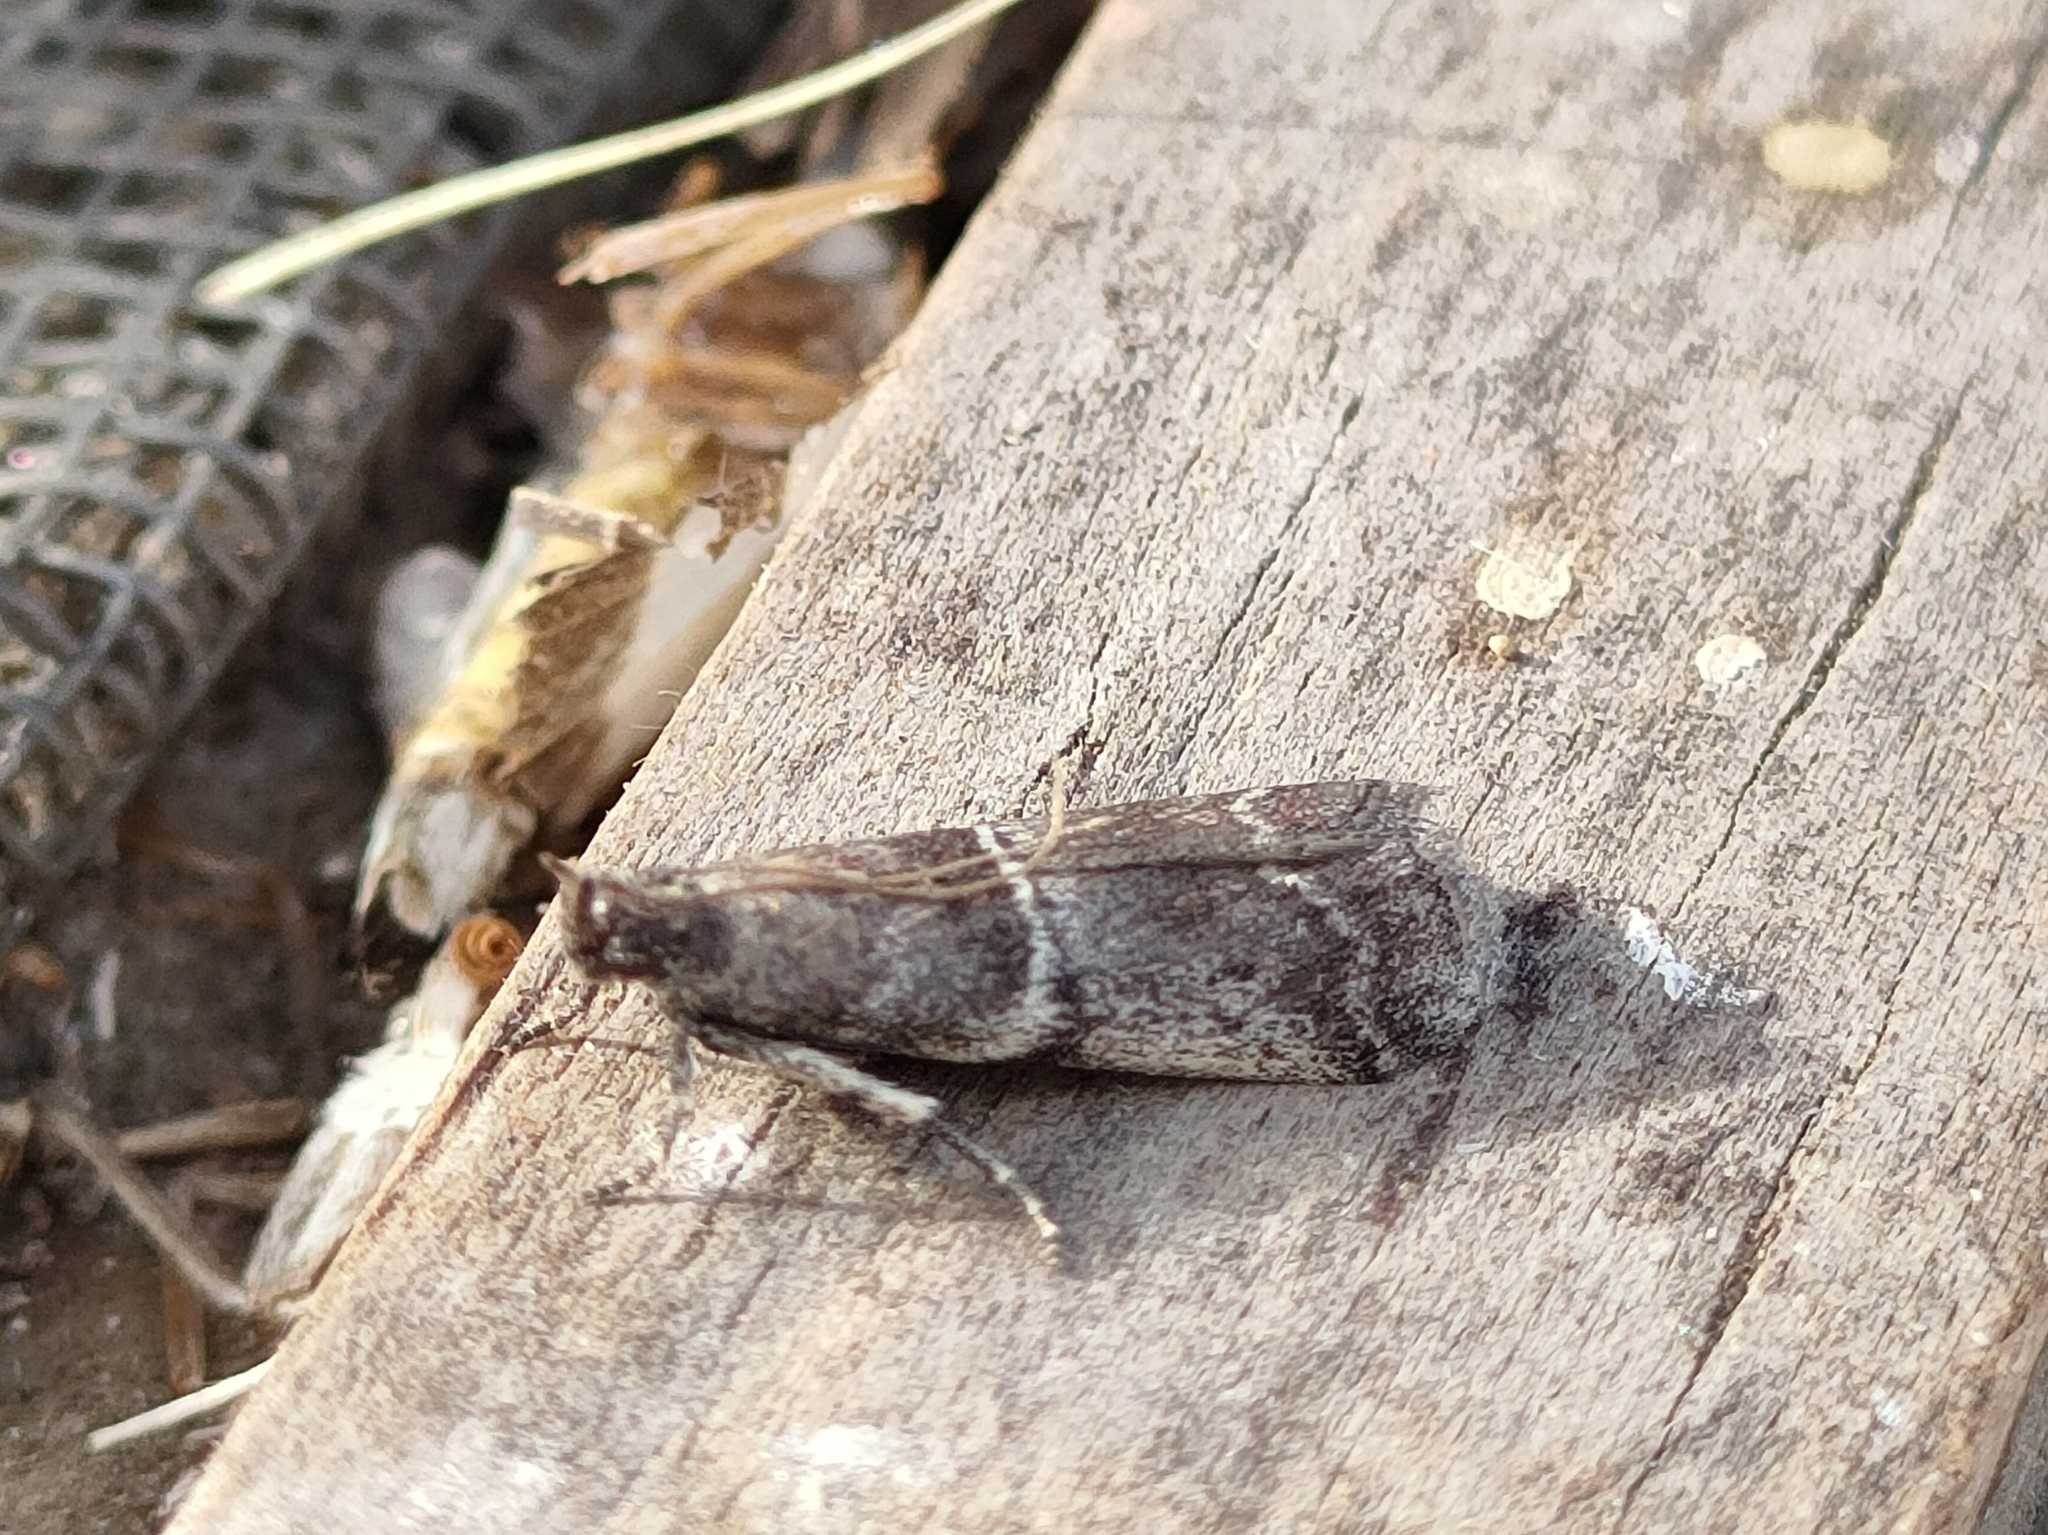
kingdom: Animalia
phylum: Arthropoda
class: Insecta
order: Lepidoptera
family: Pyralidae
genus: Alophia
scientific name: Alophia combustella
